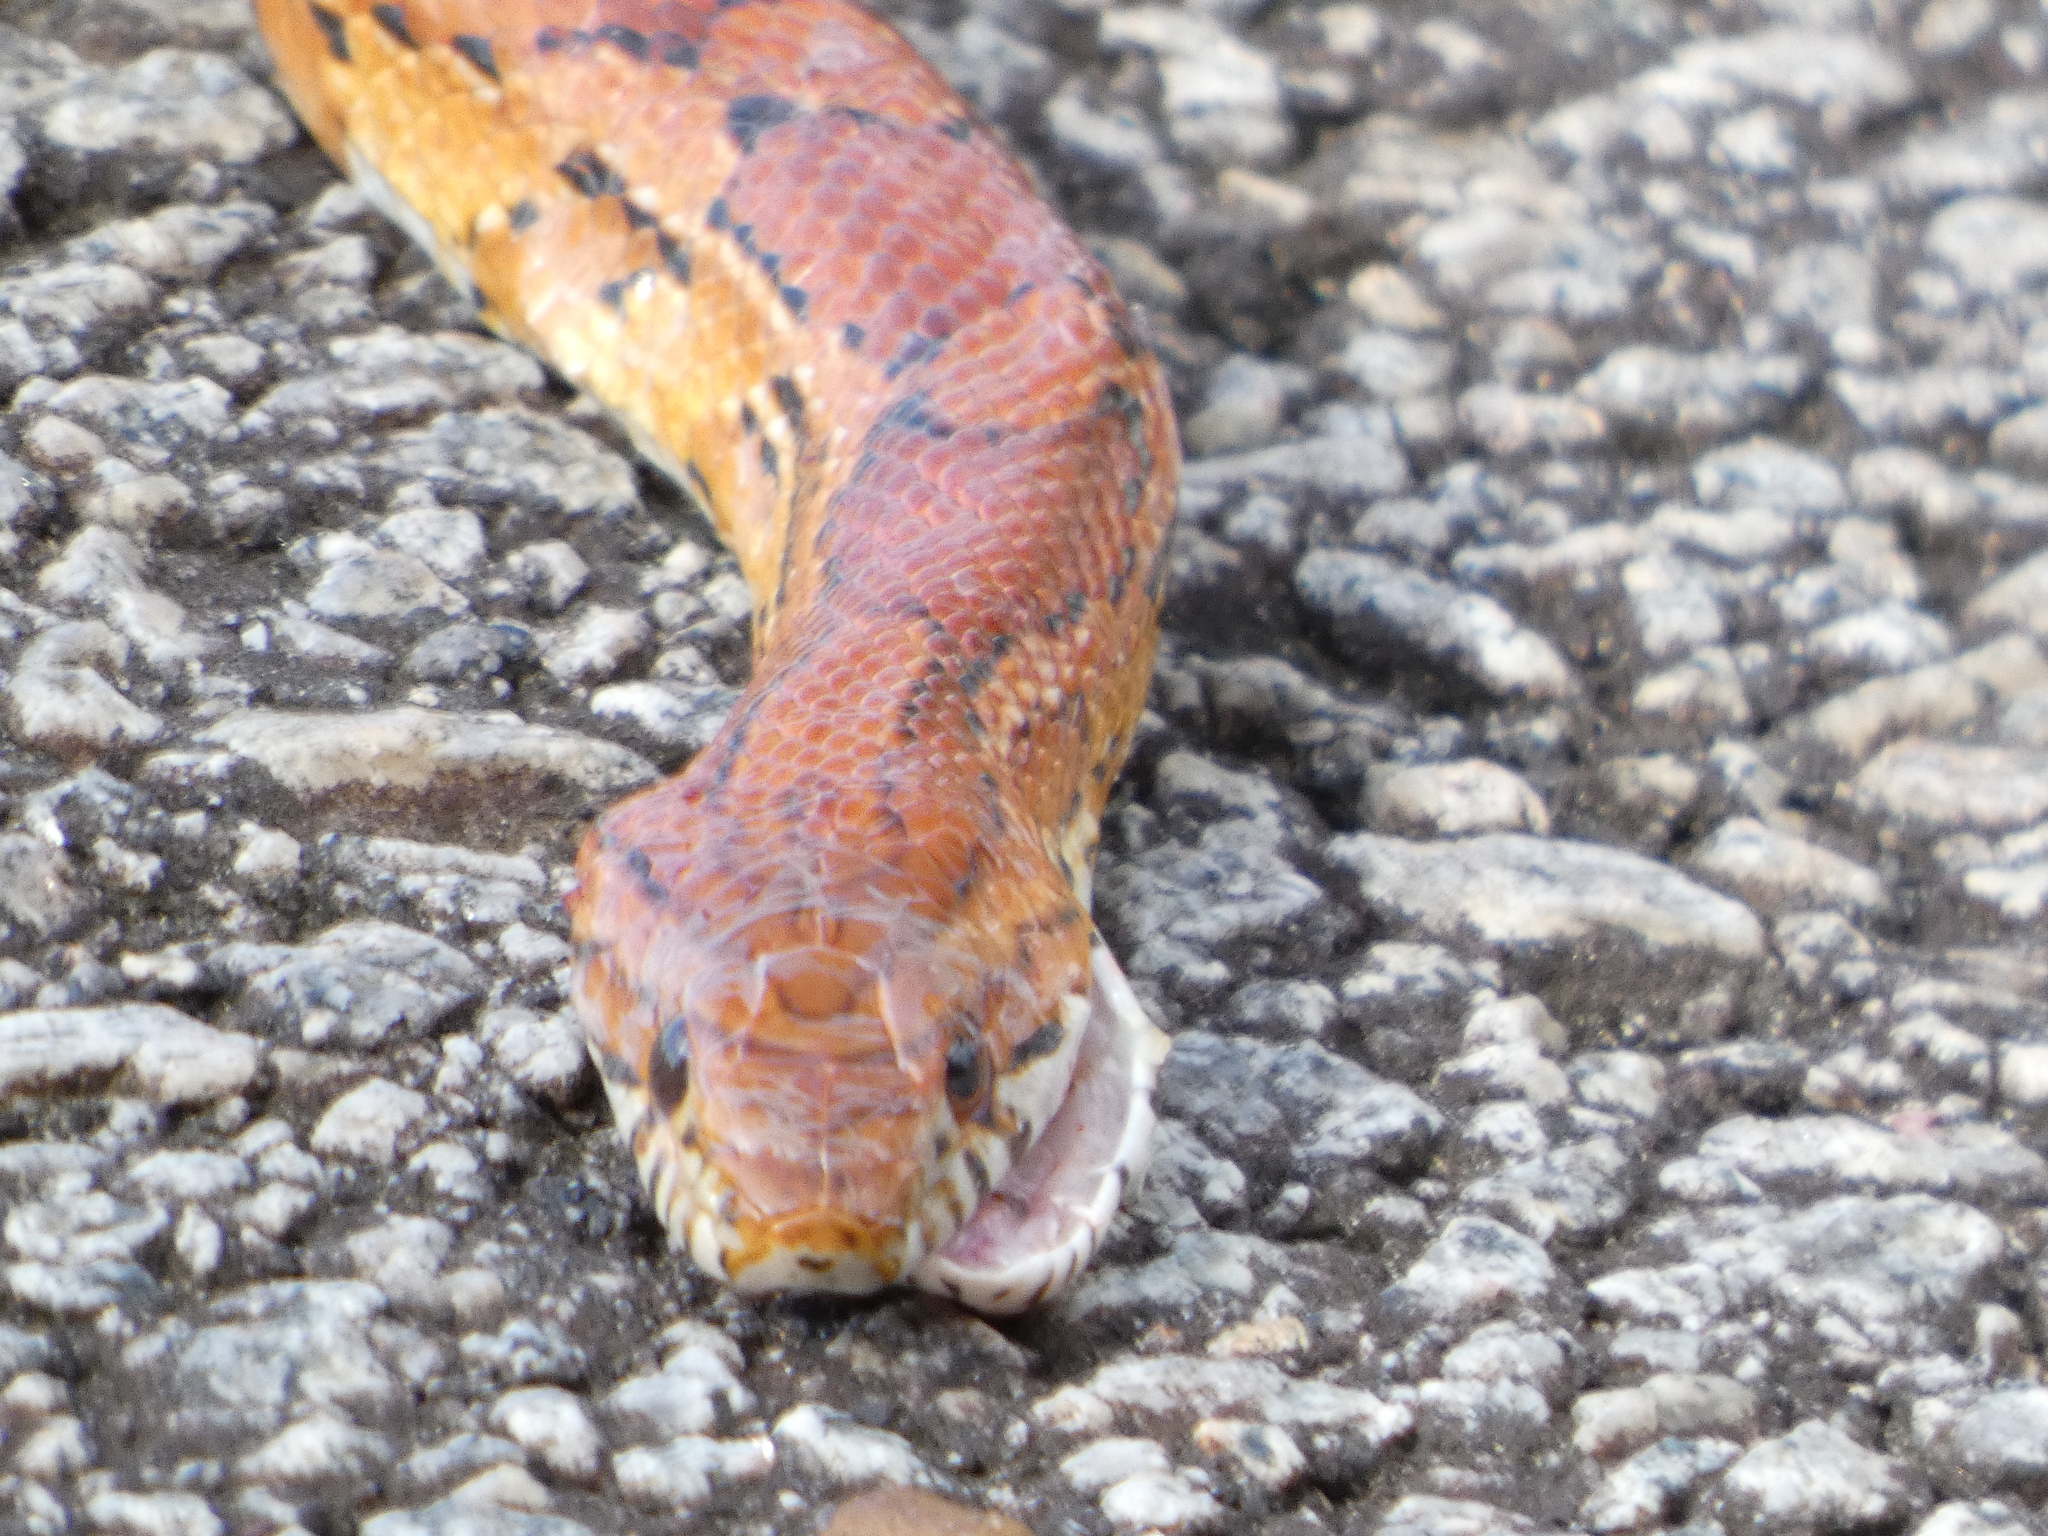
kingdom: Animalia
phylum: Chordata
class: Squamata
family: Colubridae
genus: Pantherophis
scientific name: Pantherophis guttatus
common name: Red cornsnake
